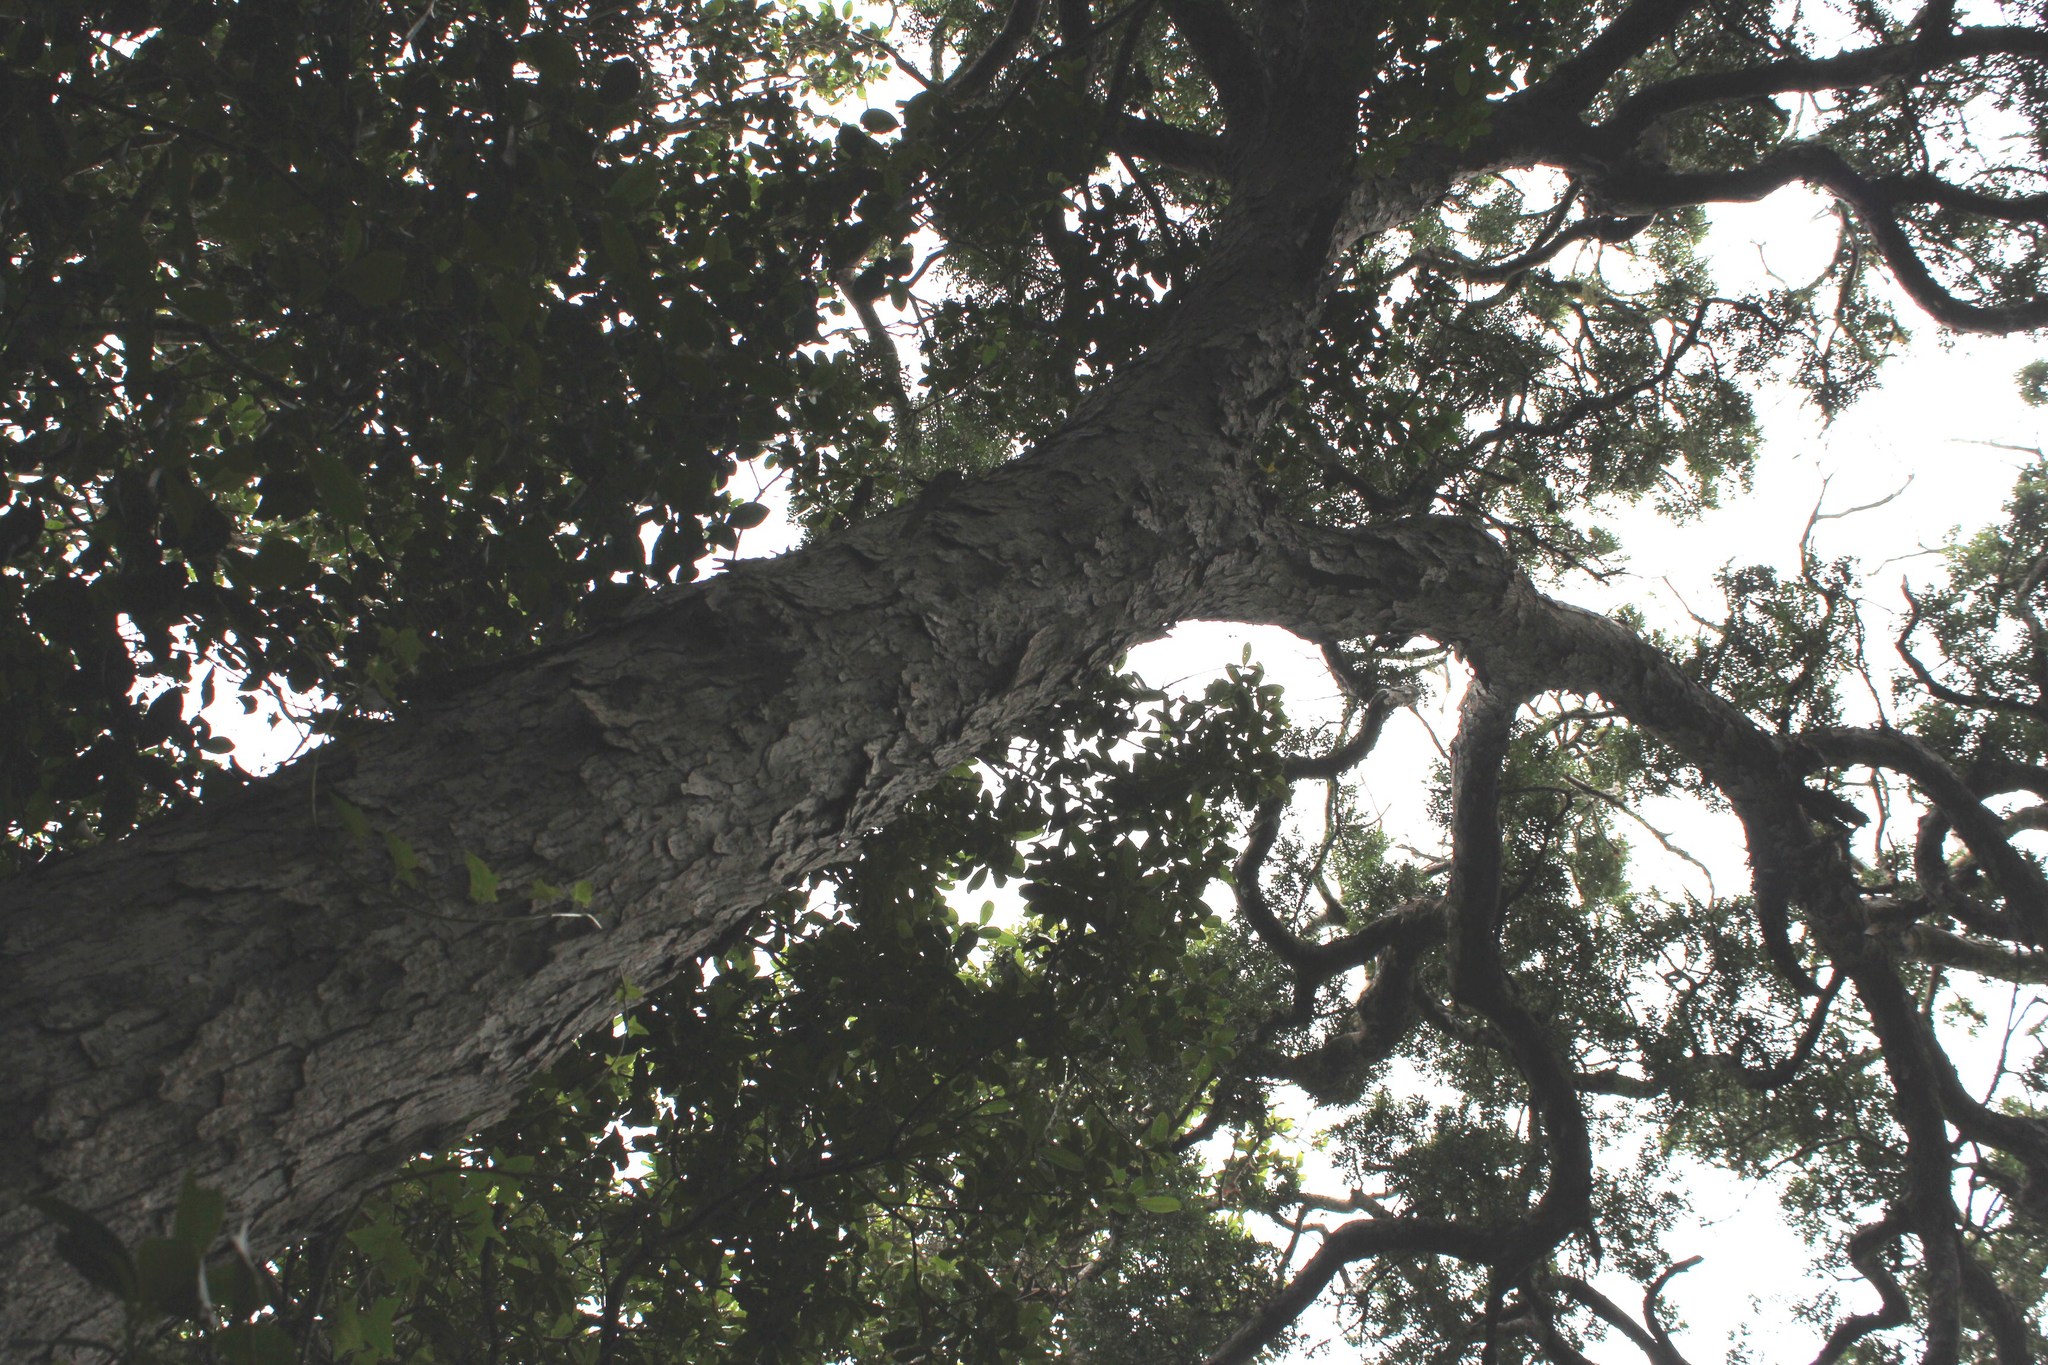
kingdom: Plantae
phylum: Tracheophyta
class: Pinopsida
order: Pinales
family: Podocarpaceae
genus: Afrocarpus
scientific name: Afrocarpus falcatus
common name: Bastard yellowwood
